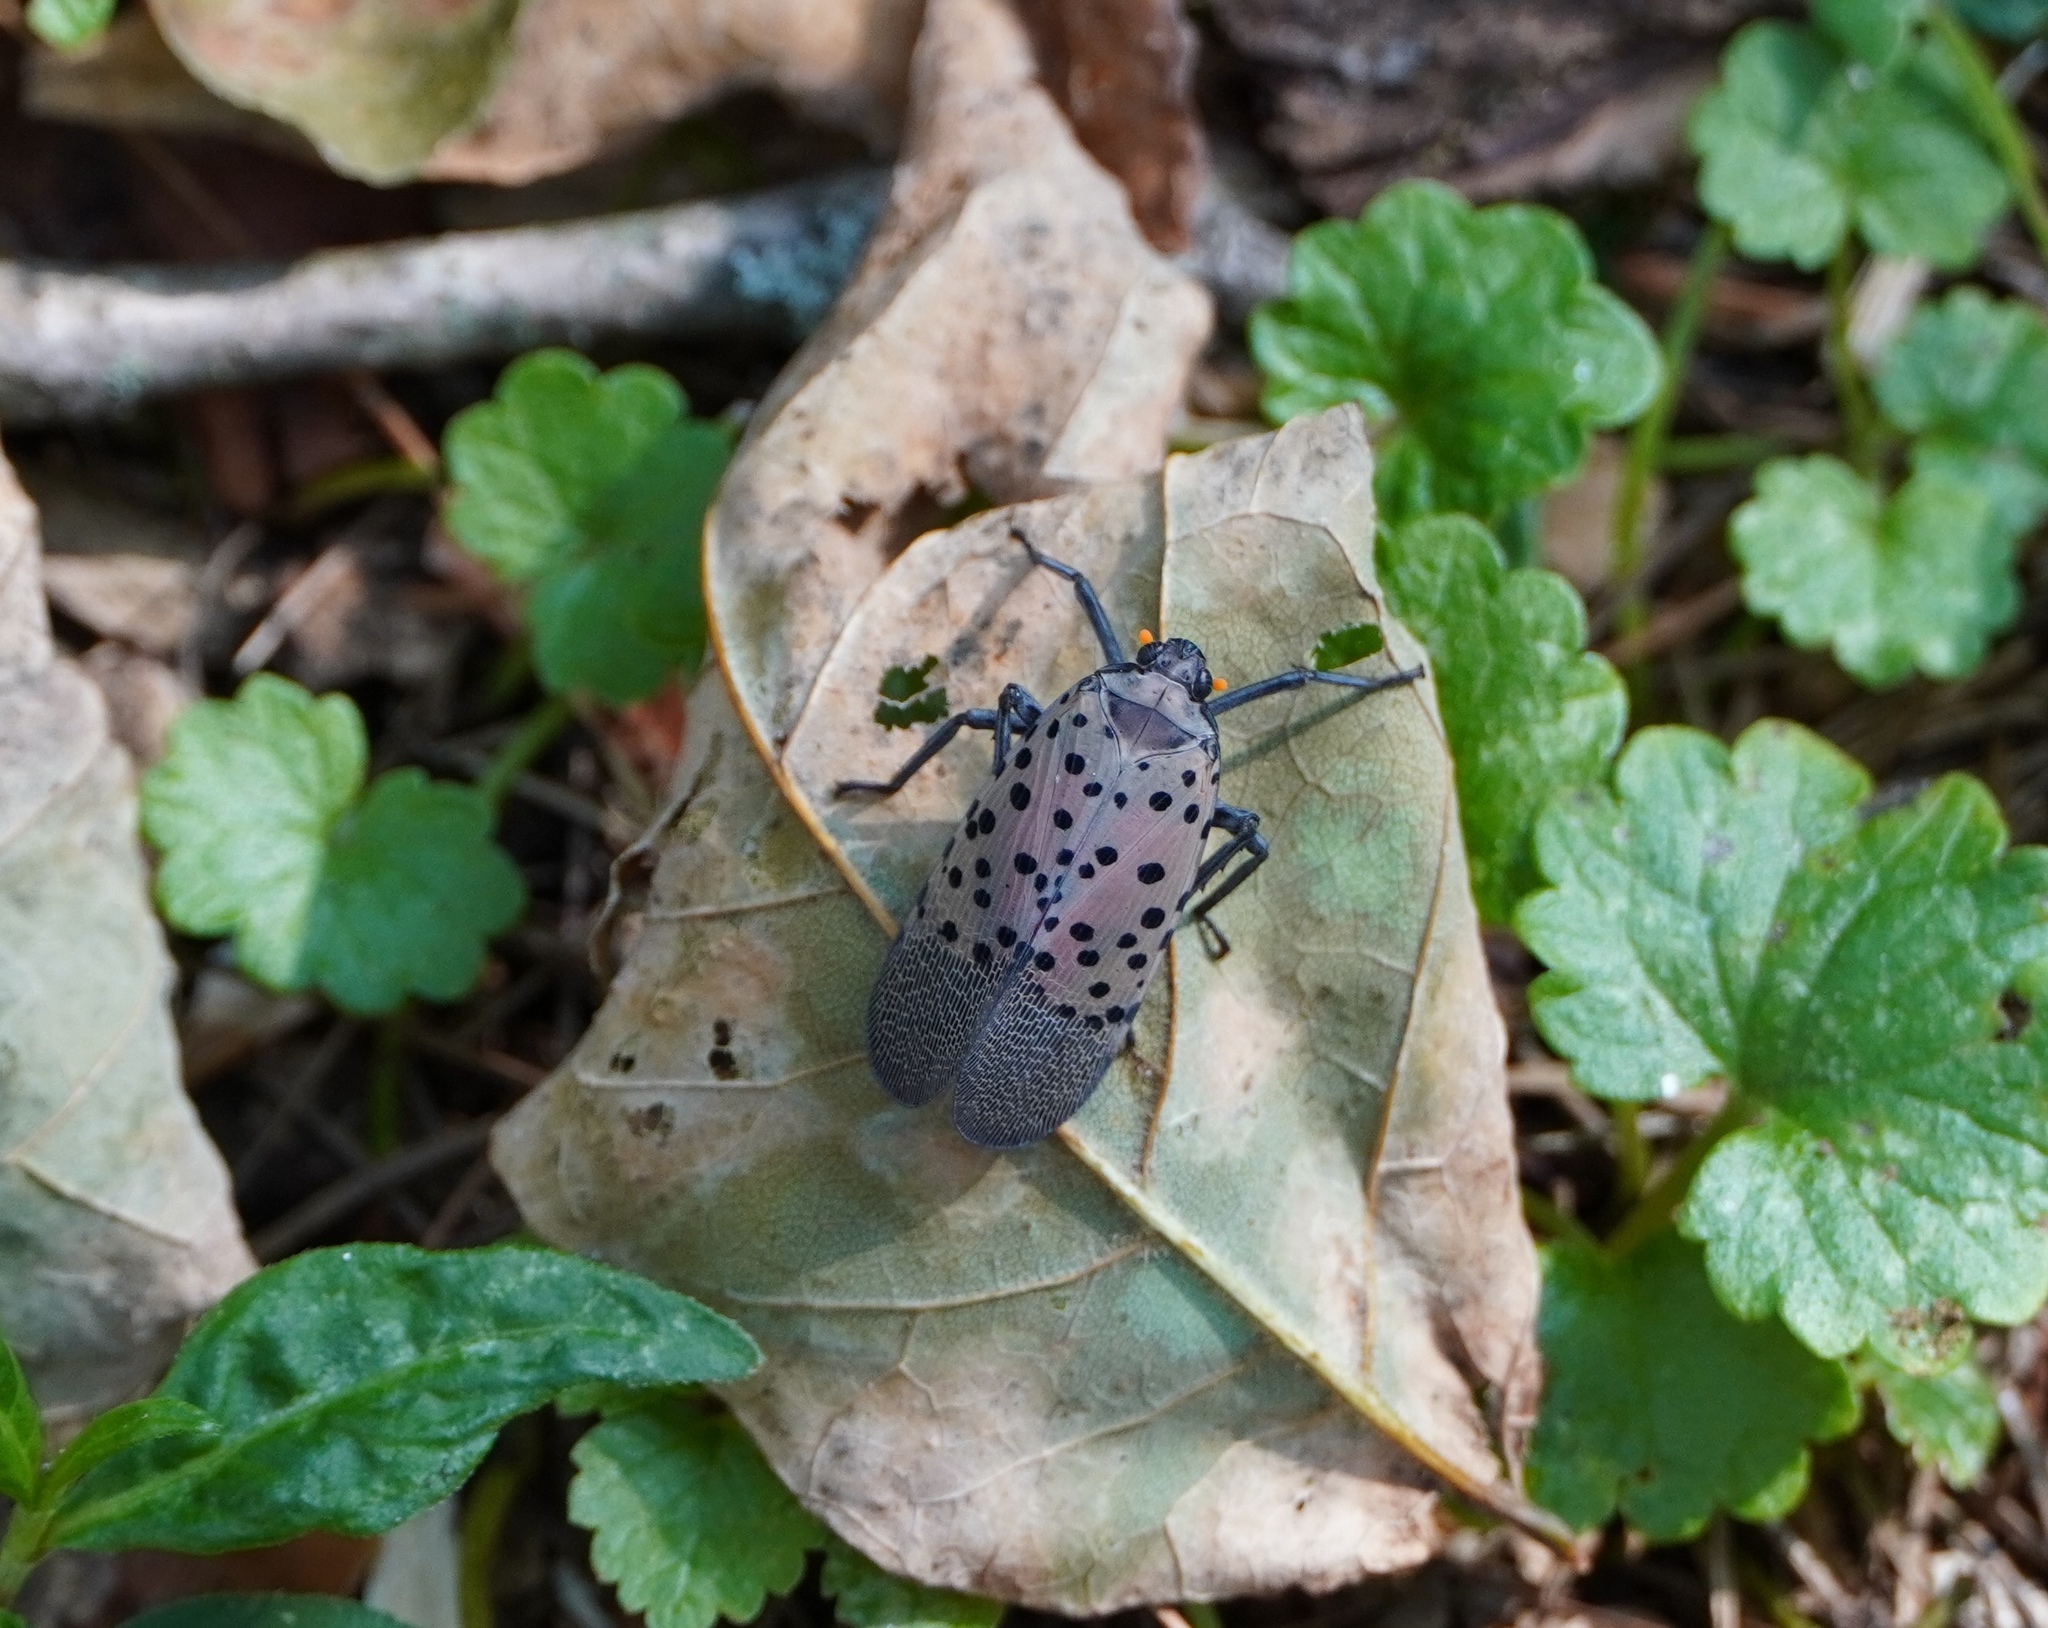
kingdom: Animalia
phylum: Arthropoda
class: Insecta
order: Hemiptera
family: Fulgoridae
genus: Lycorma
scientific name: Lycorma delicatula
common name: Spotted lanternfly
